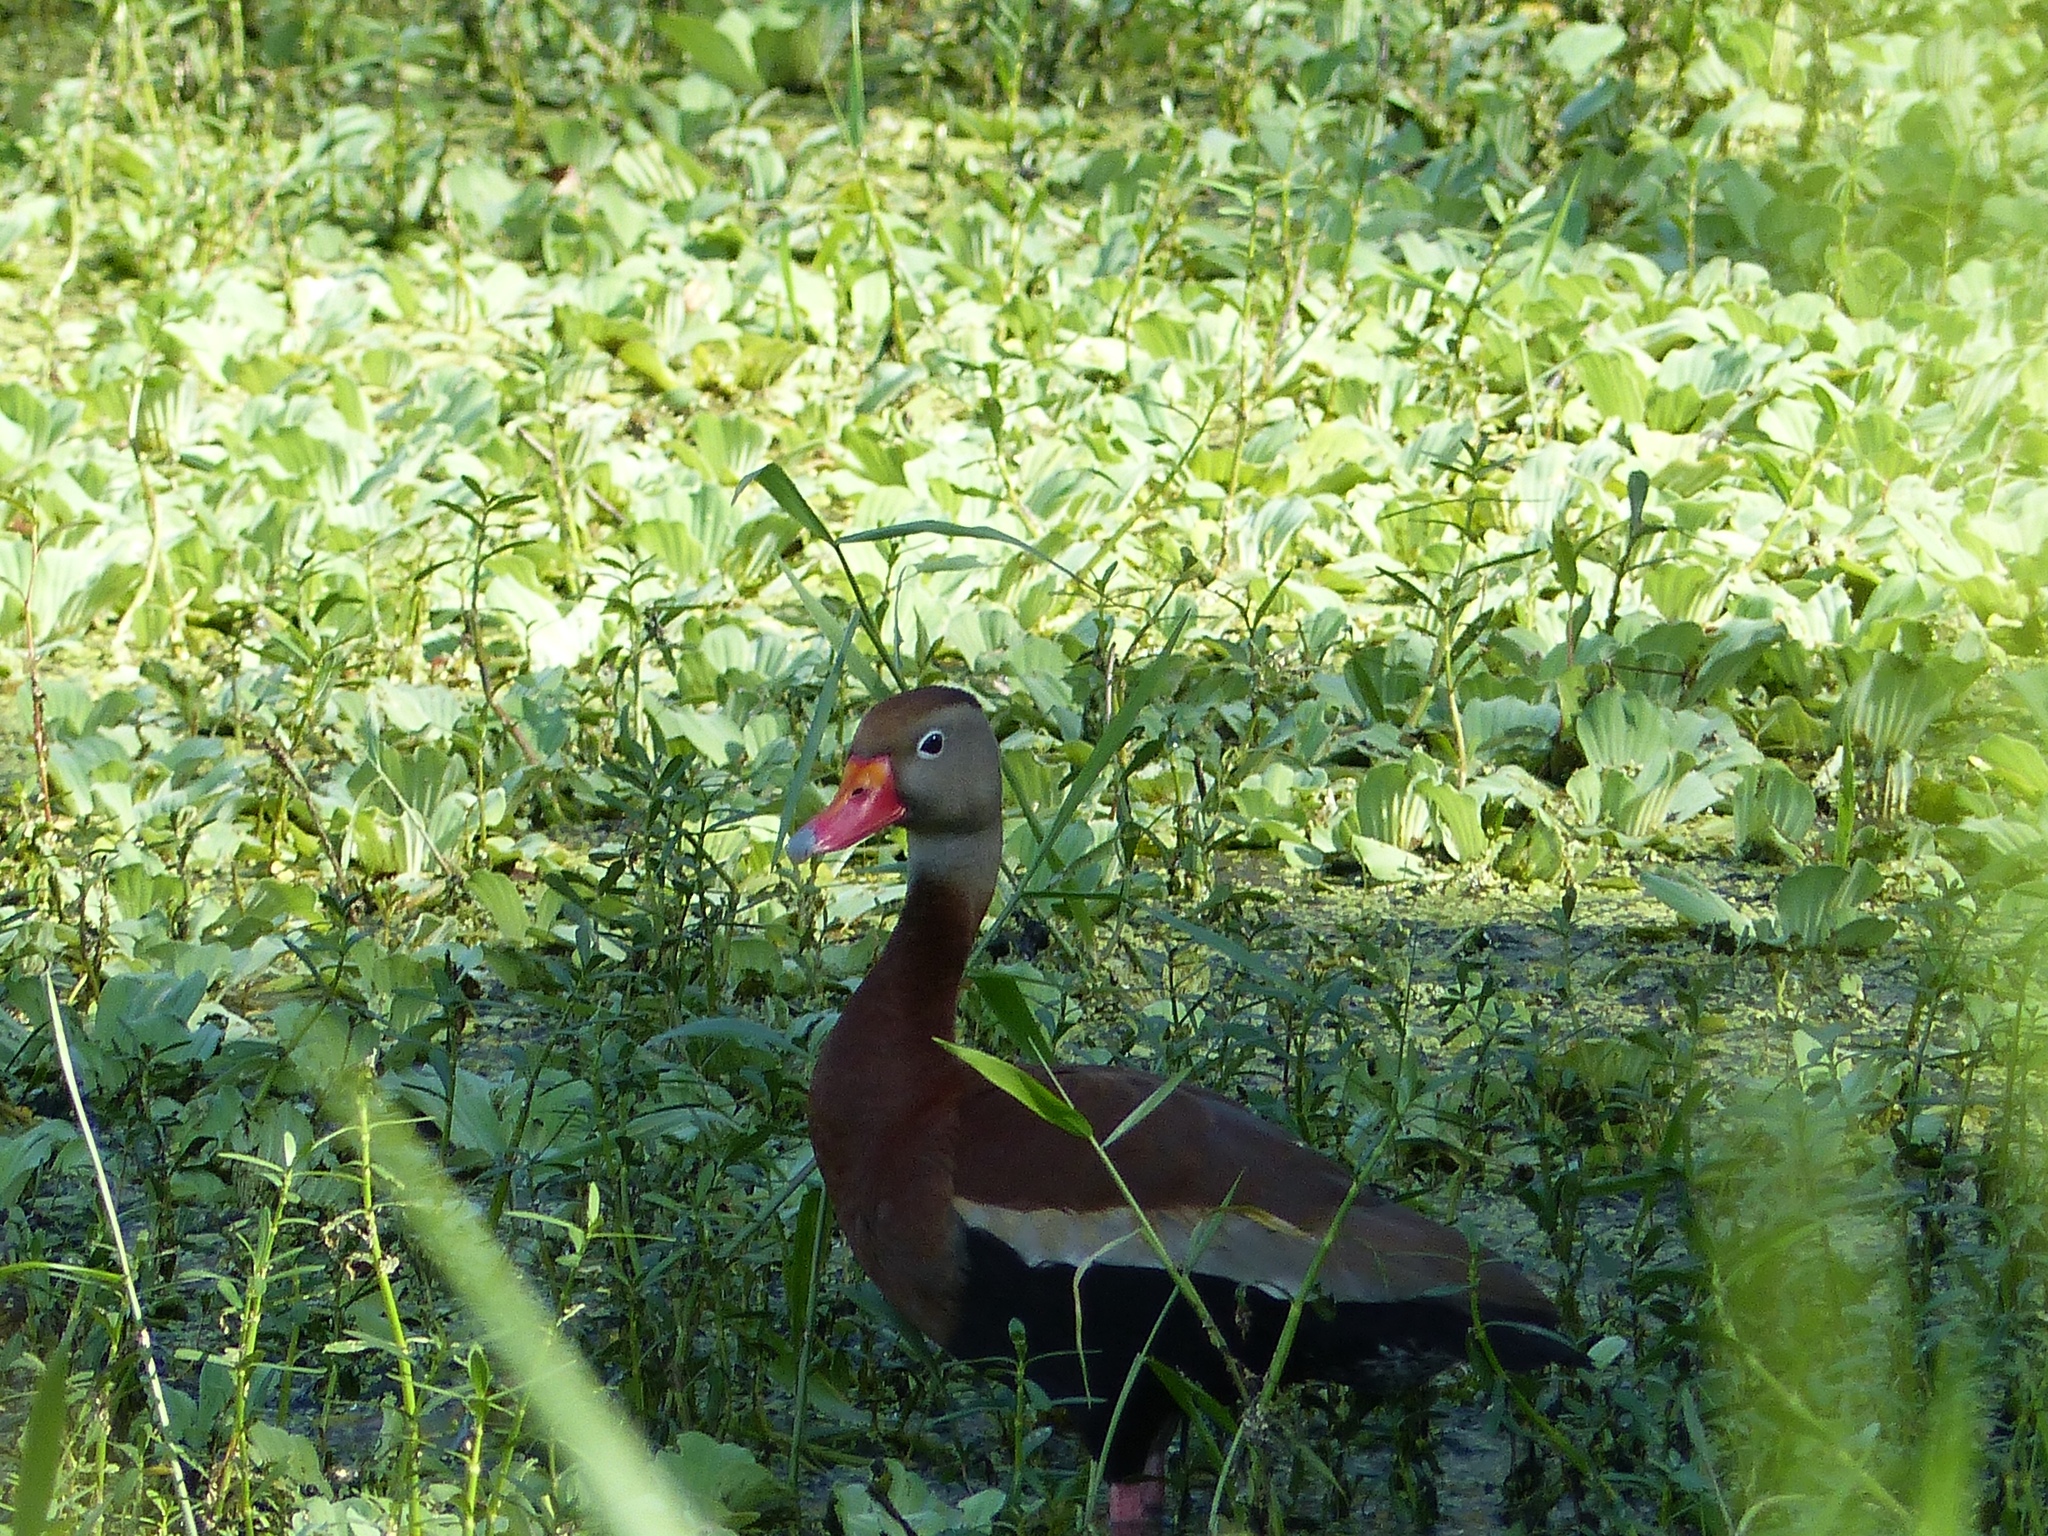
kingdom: Animalia
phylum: Chordata
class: Aves
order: Anseriformes
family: Anatidae
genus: Dendrocygna
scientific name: Dendrocygna autumnalis
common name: Black-bellied whistling duck
